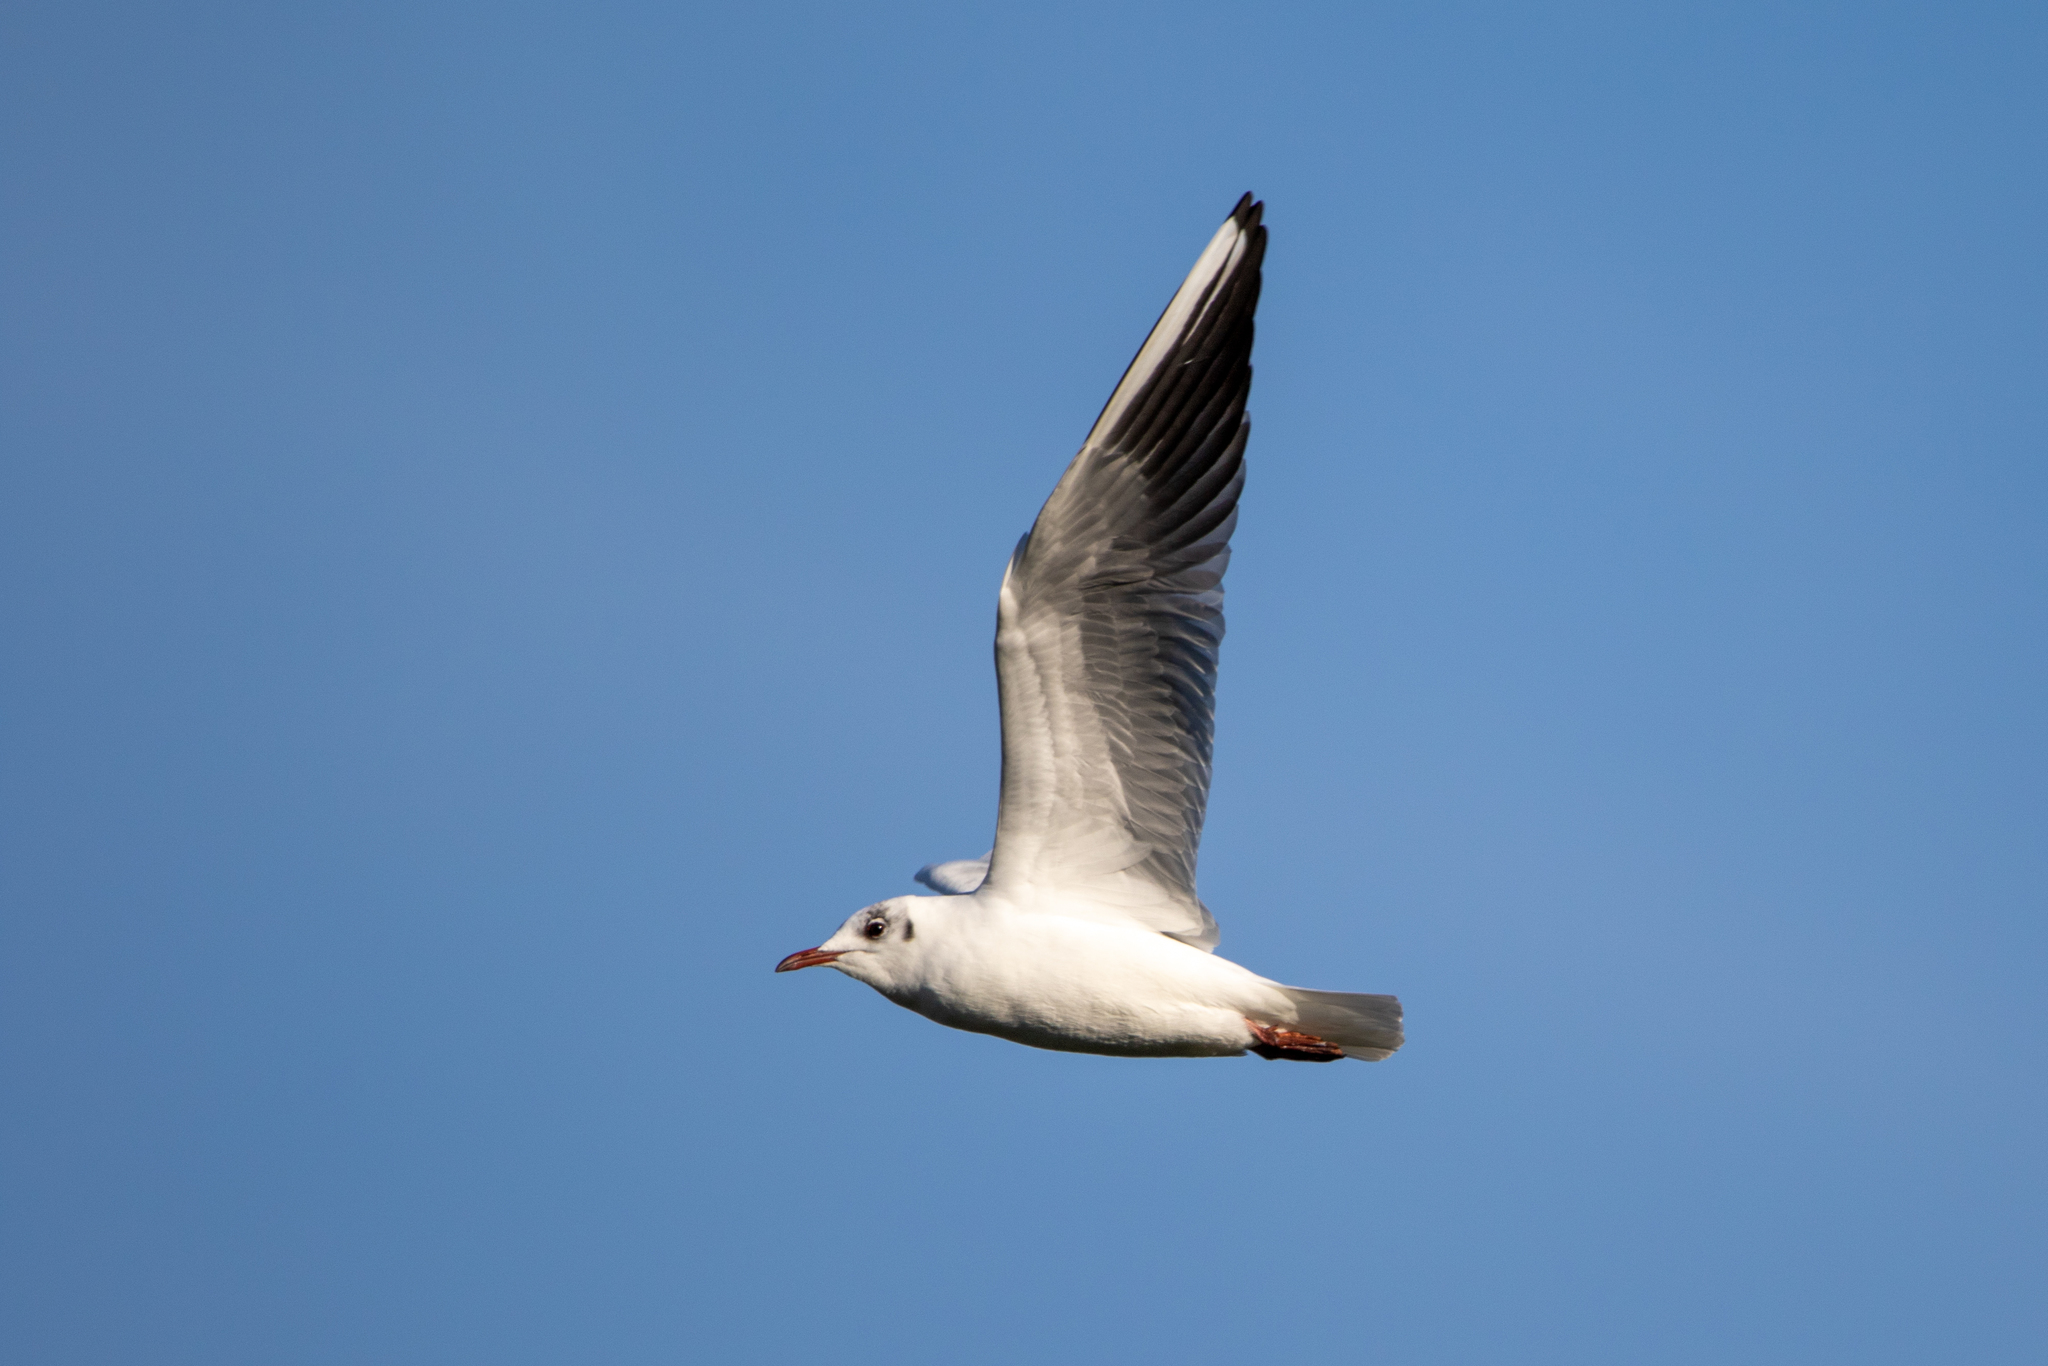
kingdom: Animalia
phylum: Chordata
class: Aves
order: Charadriiformes
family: Laridae
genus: Chroicocephalus
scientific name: Chroicocephalus ridibundus
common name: Black-headed gull
